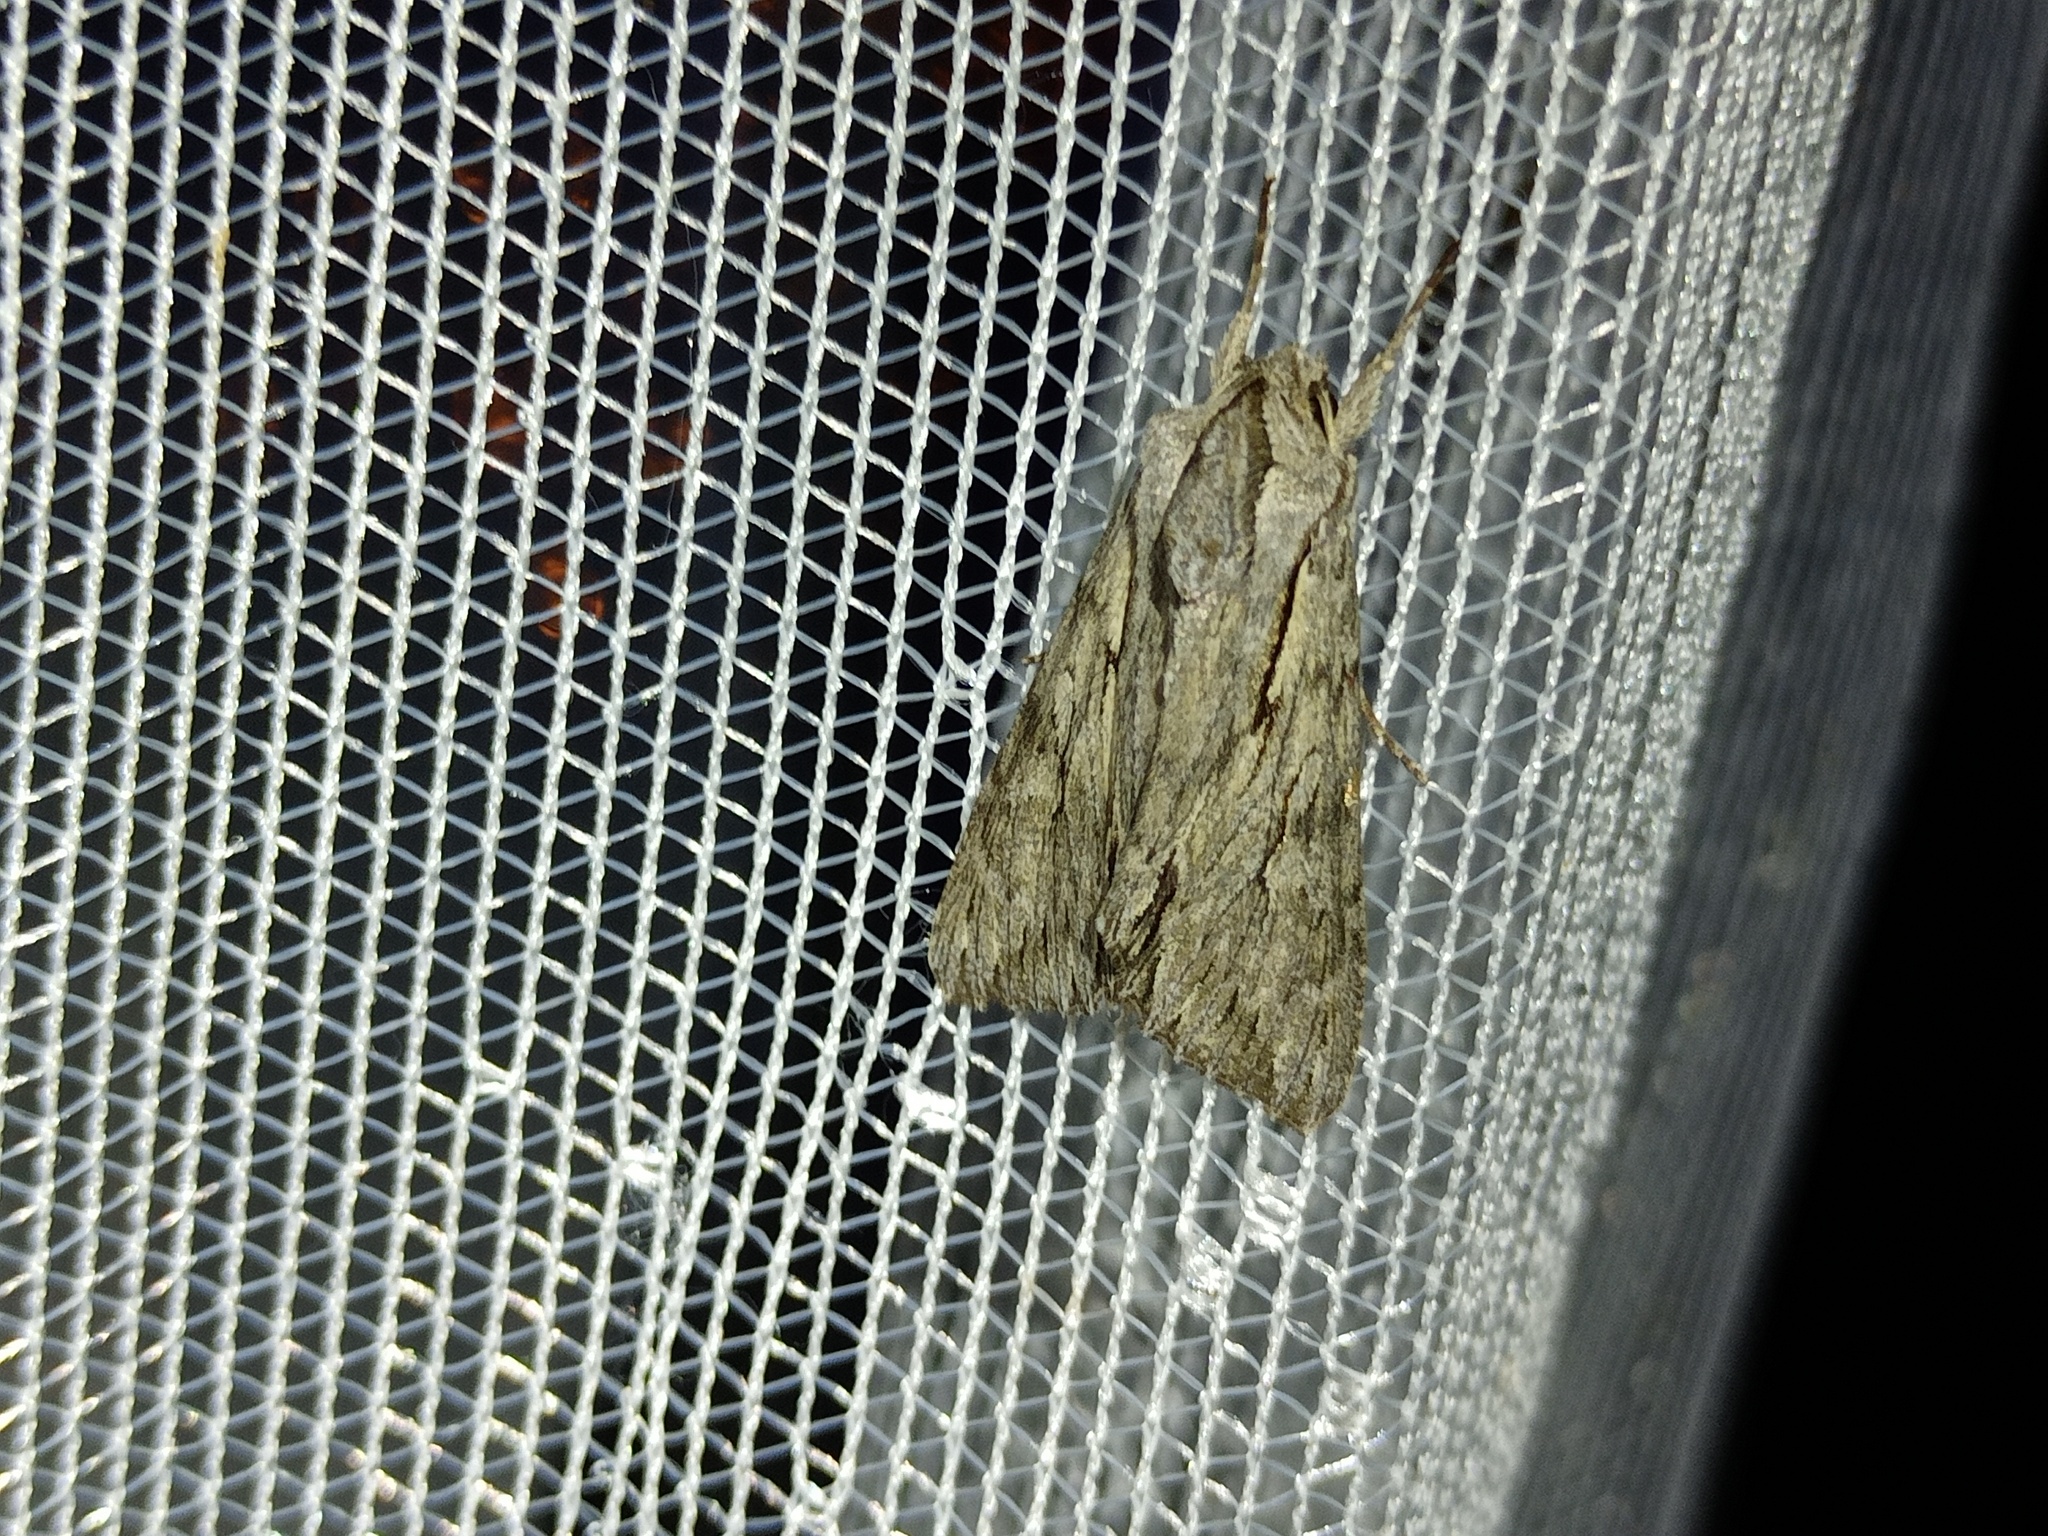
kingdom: Animalia
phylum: Arthropoda
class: Insecta
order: Lepidoptera
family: Noctuidae
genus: Auchmis
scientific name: Auchmis detersa
